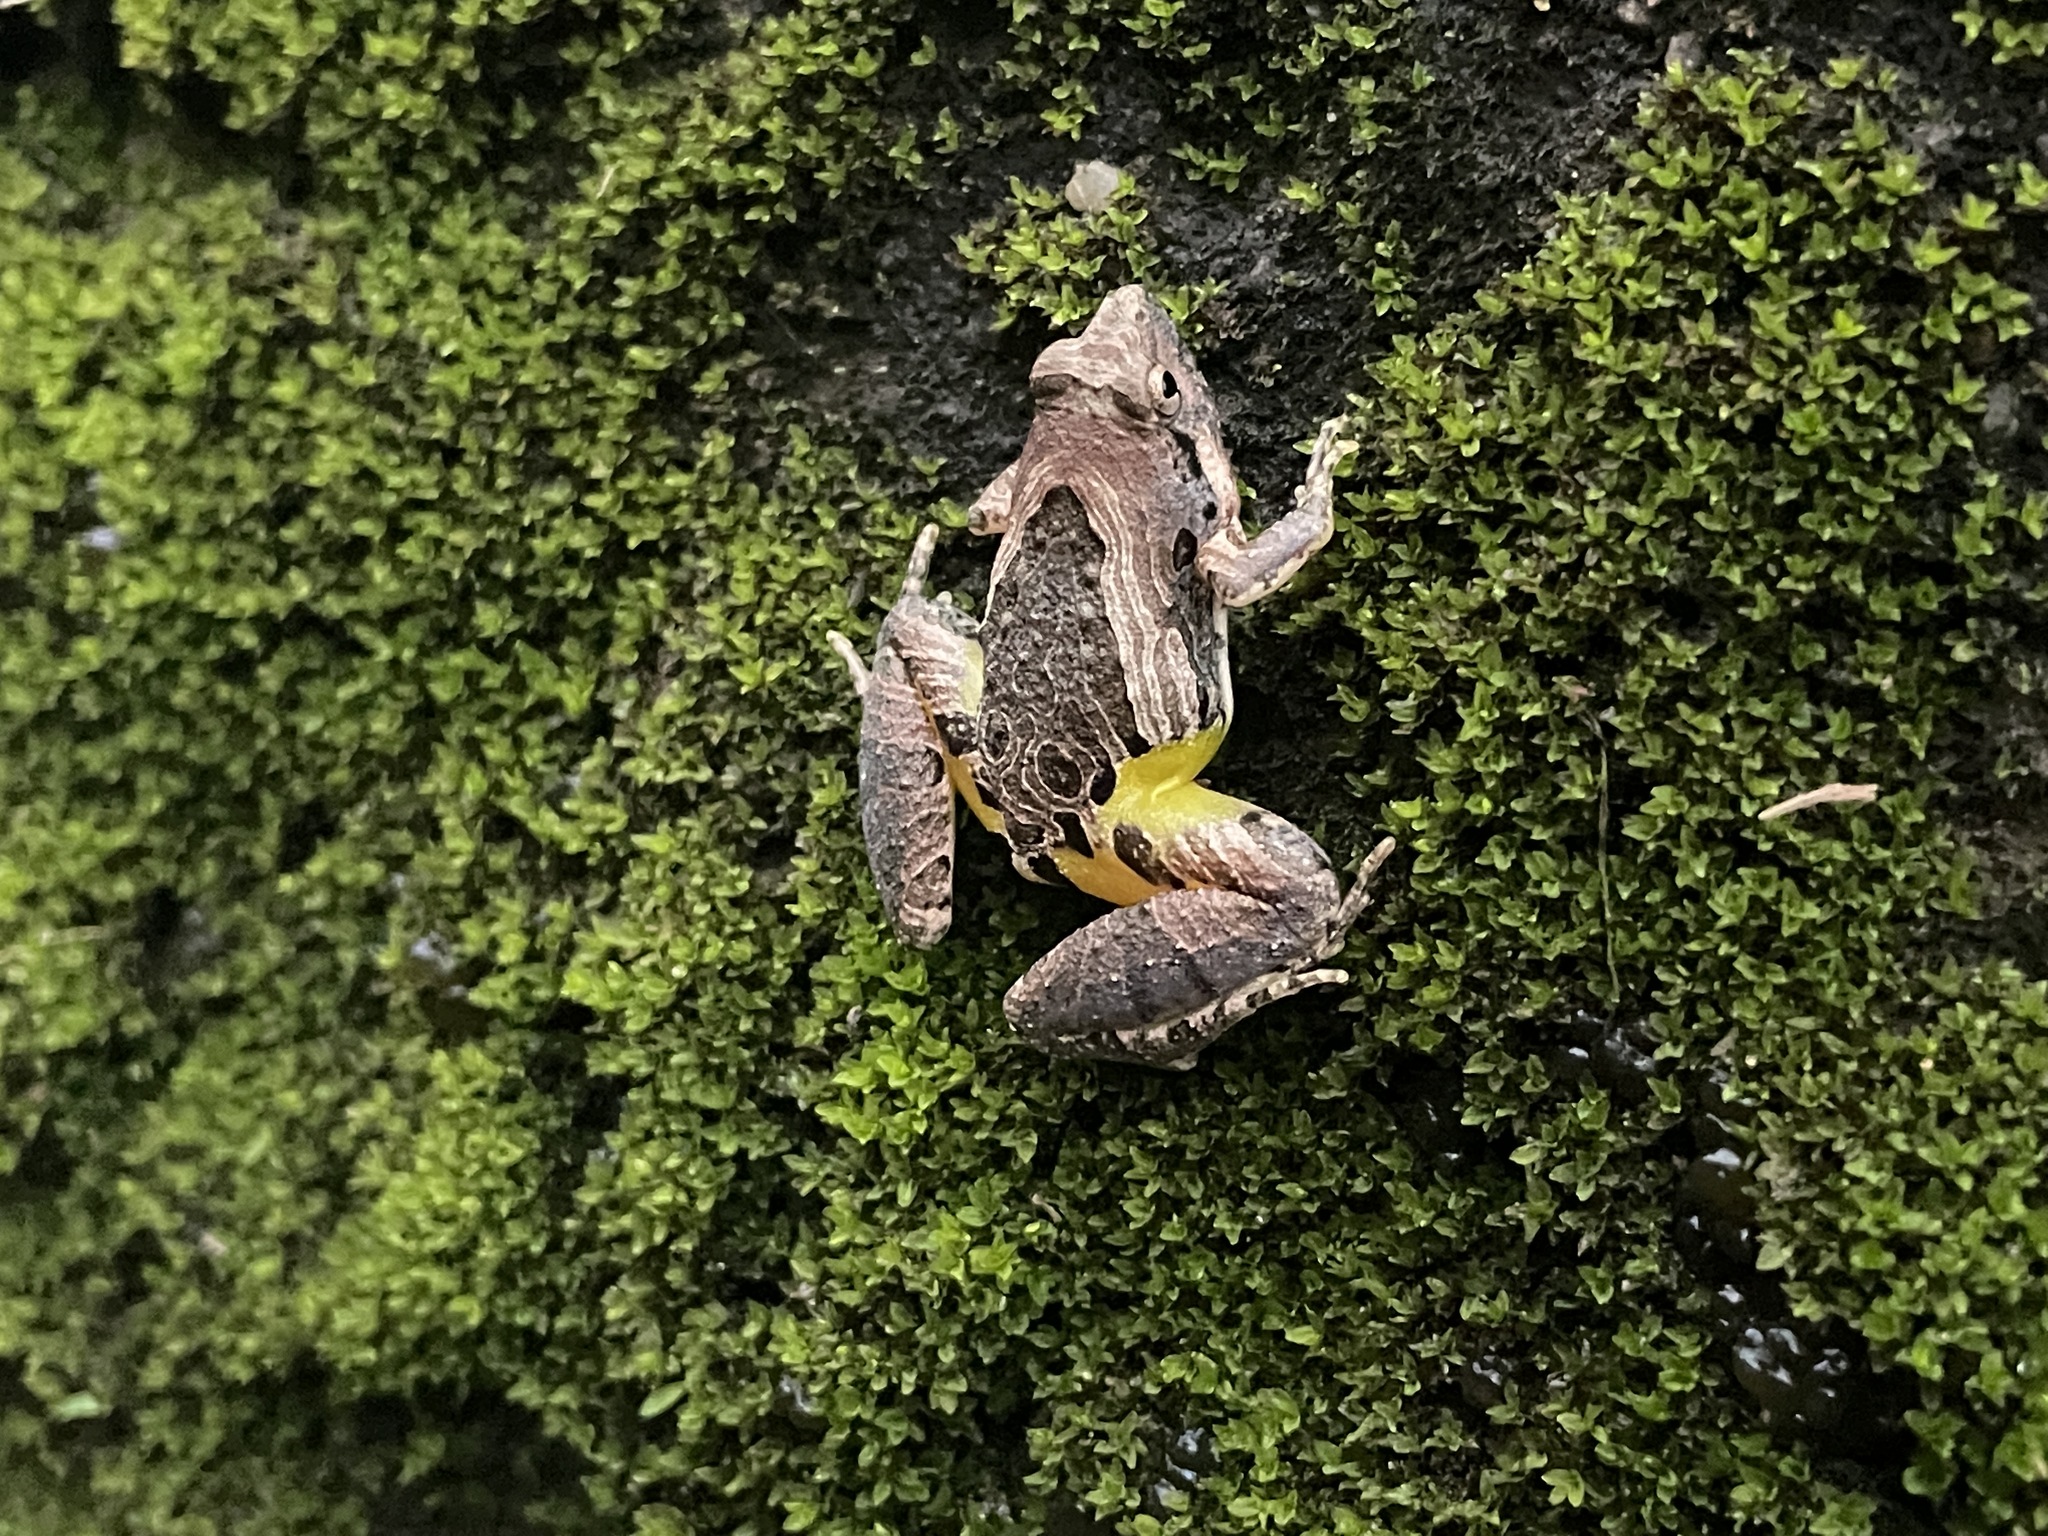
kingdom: Animalia
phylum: Chordata
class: Amphibia
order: Anura
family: Microhylidae
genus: Microhyla
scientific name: Microhyla pulchra
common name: Beautiful pygmy frog
